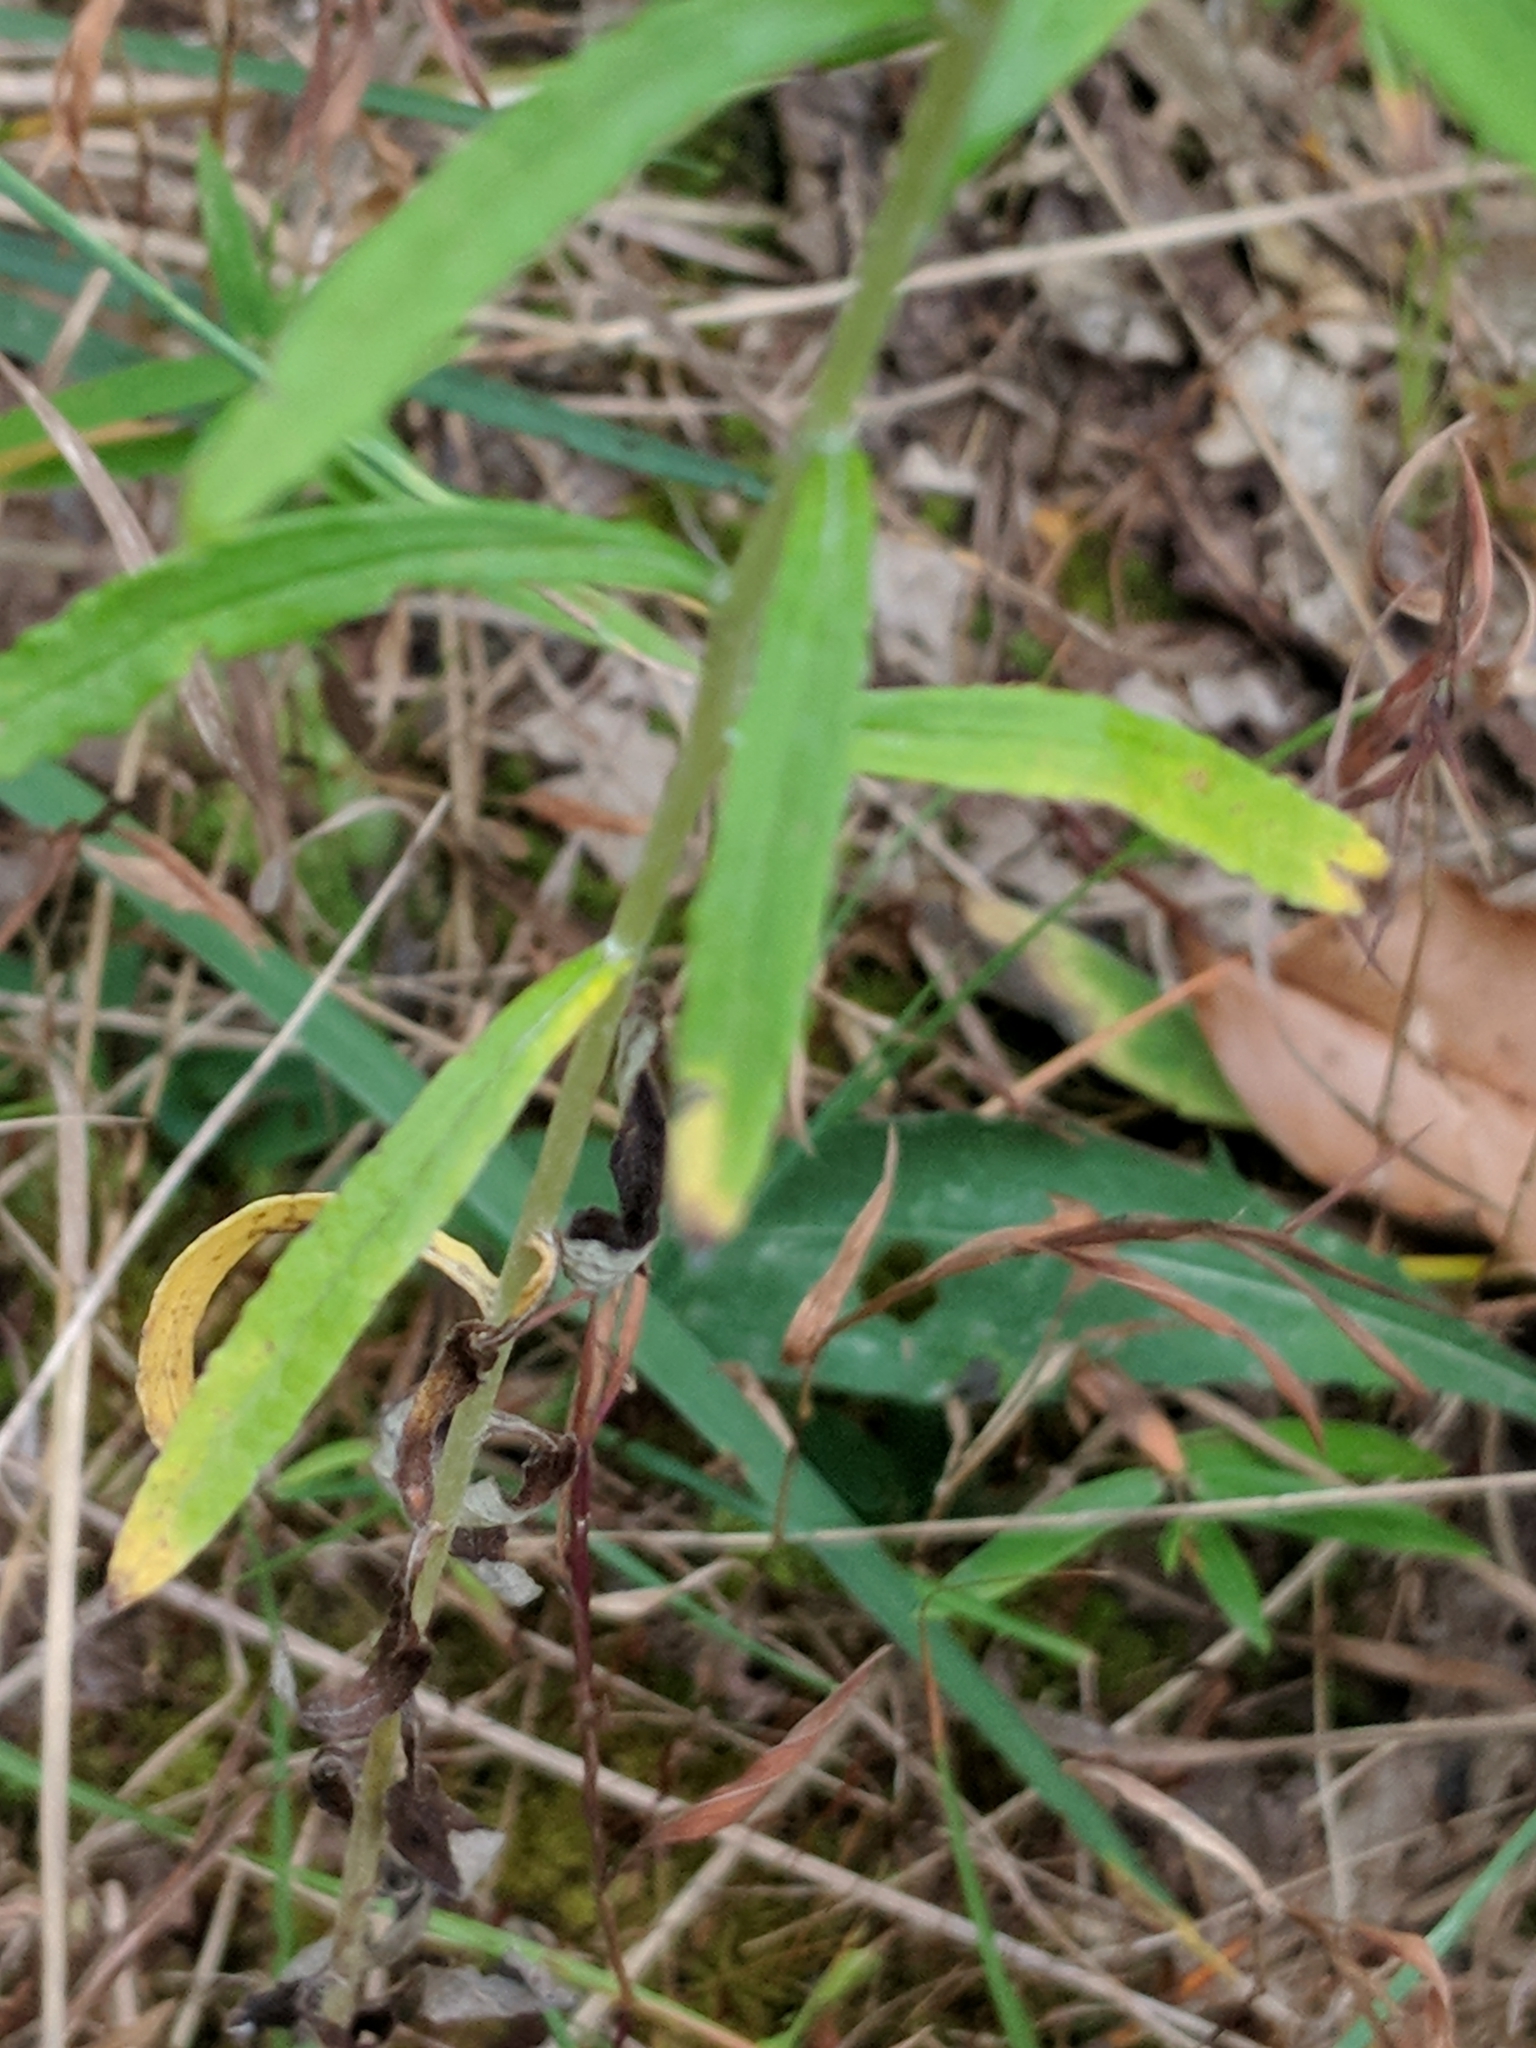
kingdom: Plantae
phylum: Tracheophyta
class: Magnoliopsida
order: Asterales
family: Asteraceae
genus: Pseudognaphalium
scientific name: Pseudognaphalium obtusifolium
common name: Eastern rabbit-tobacco
